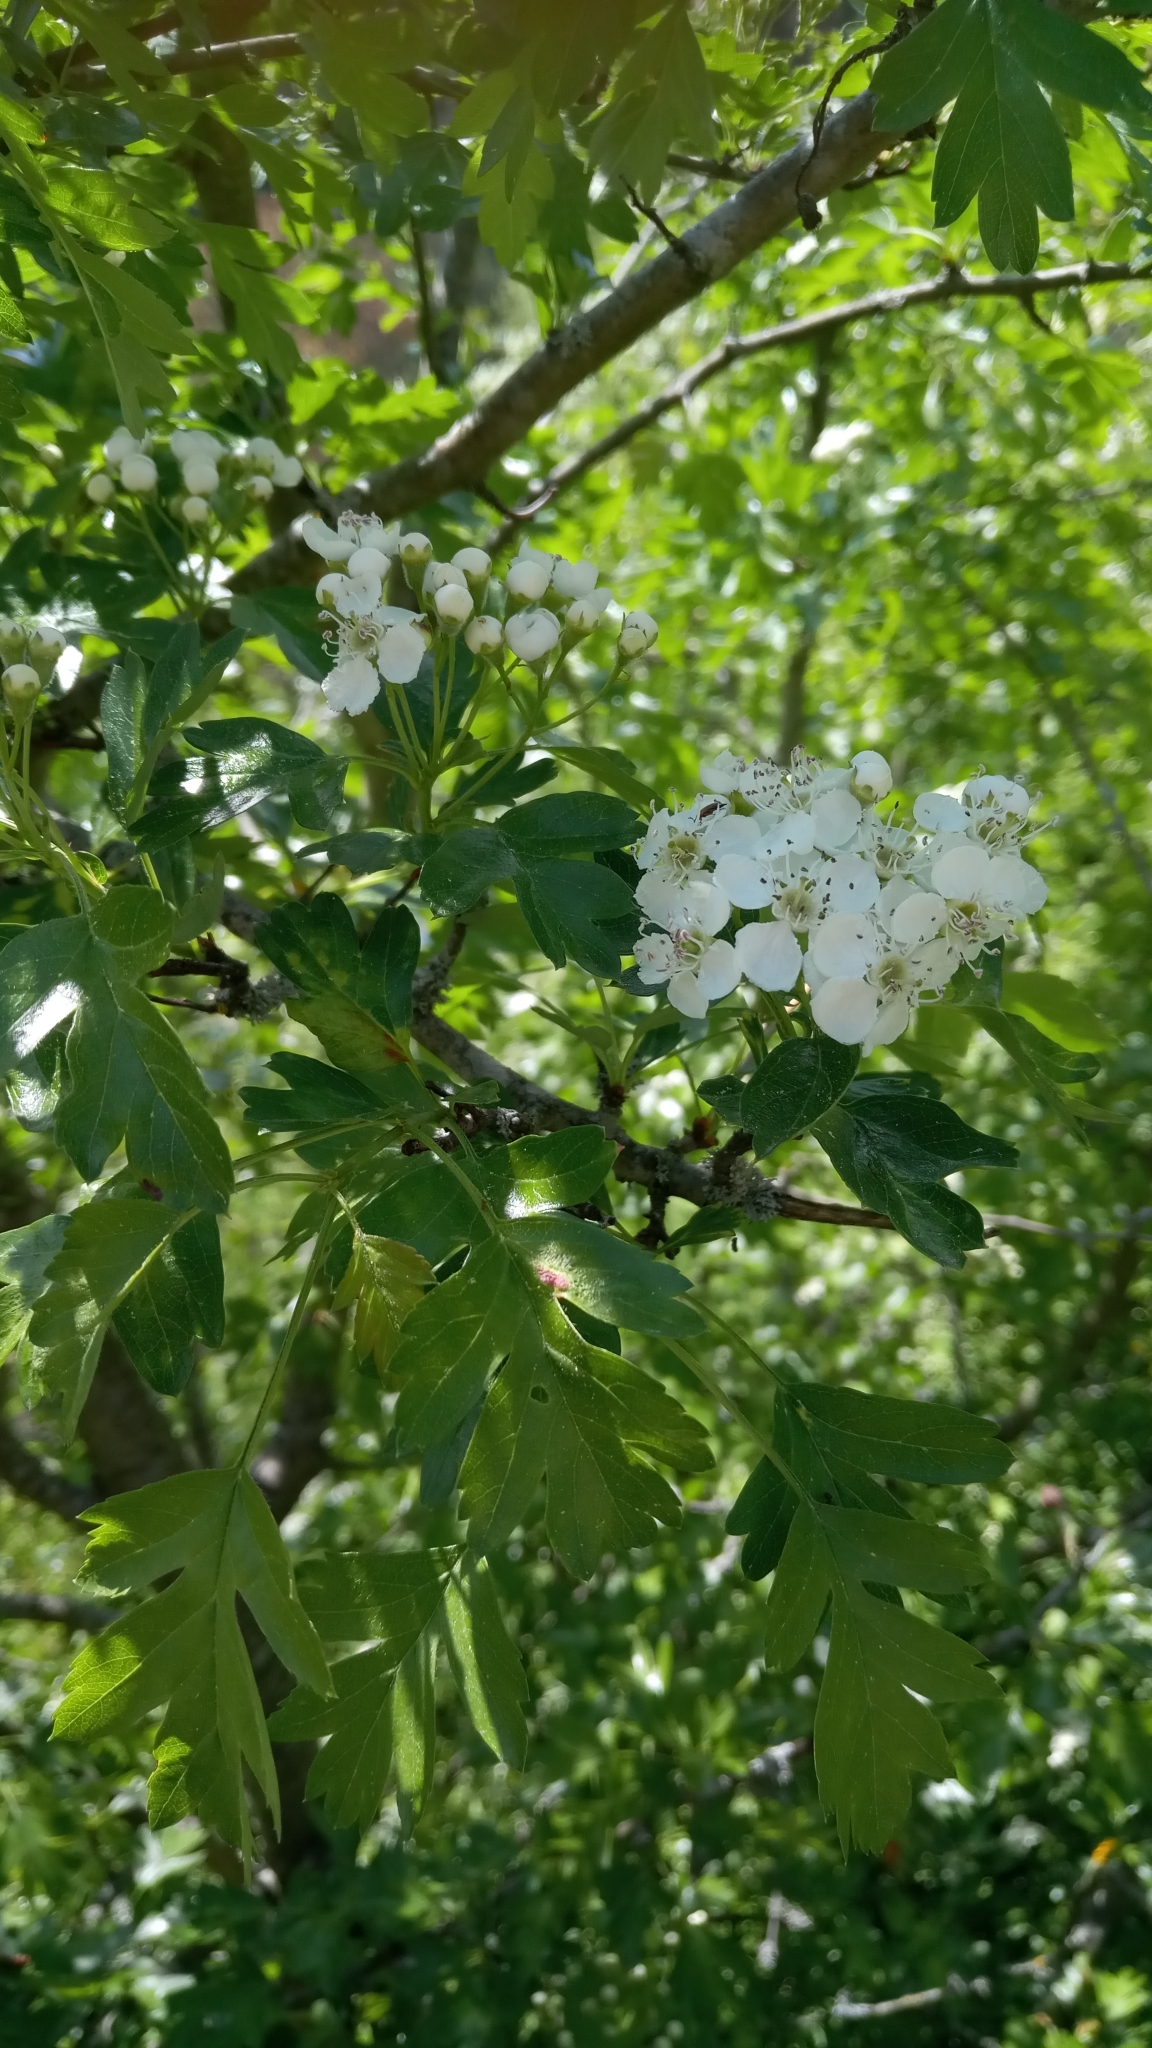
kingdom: Plantae
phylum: Tracheophyta
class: Magnoliopsida
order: Rosales
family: Rosaceae
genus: Crataegus
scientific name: Crataegus monogyna
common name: Hawthorn
